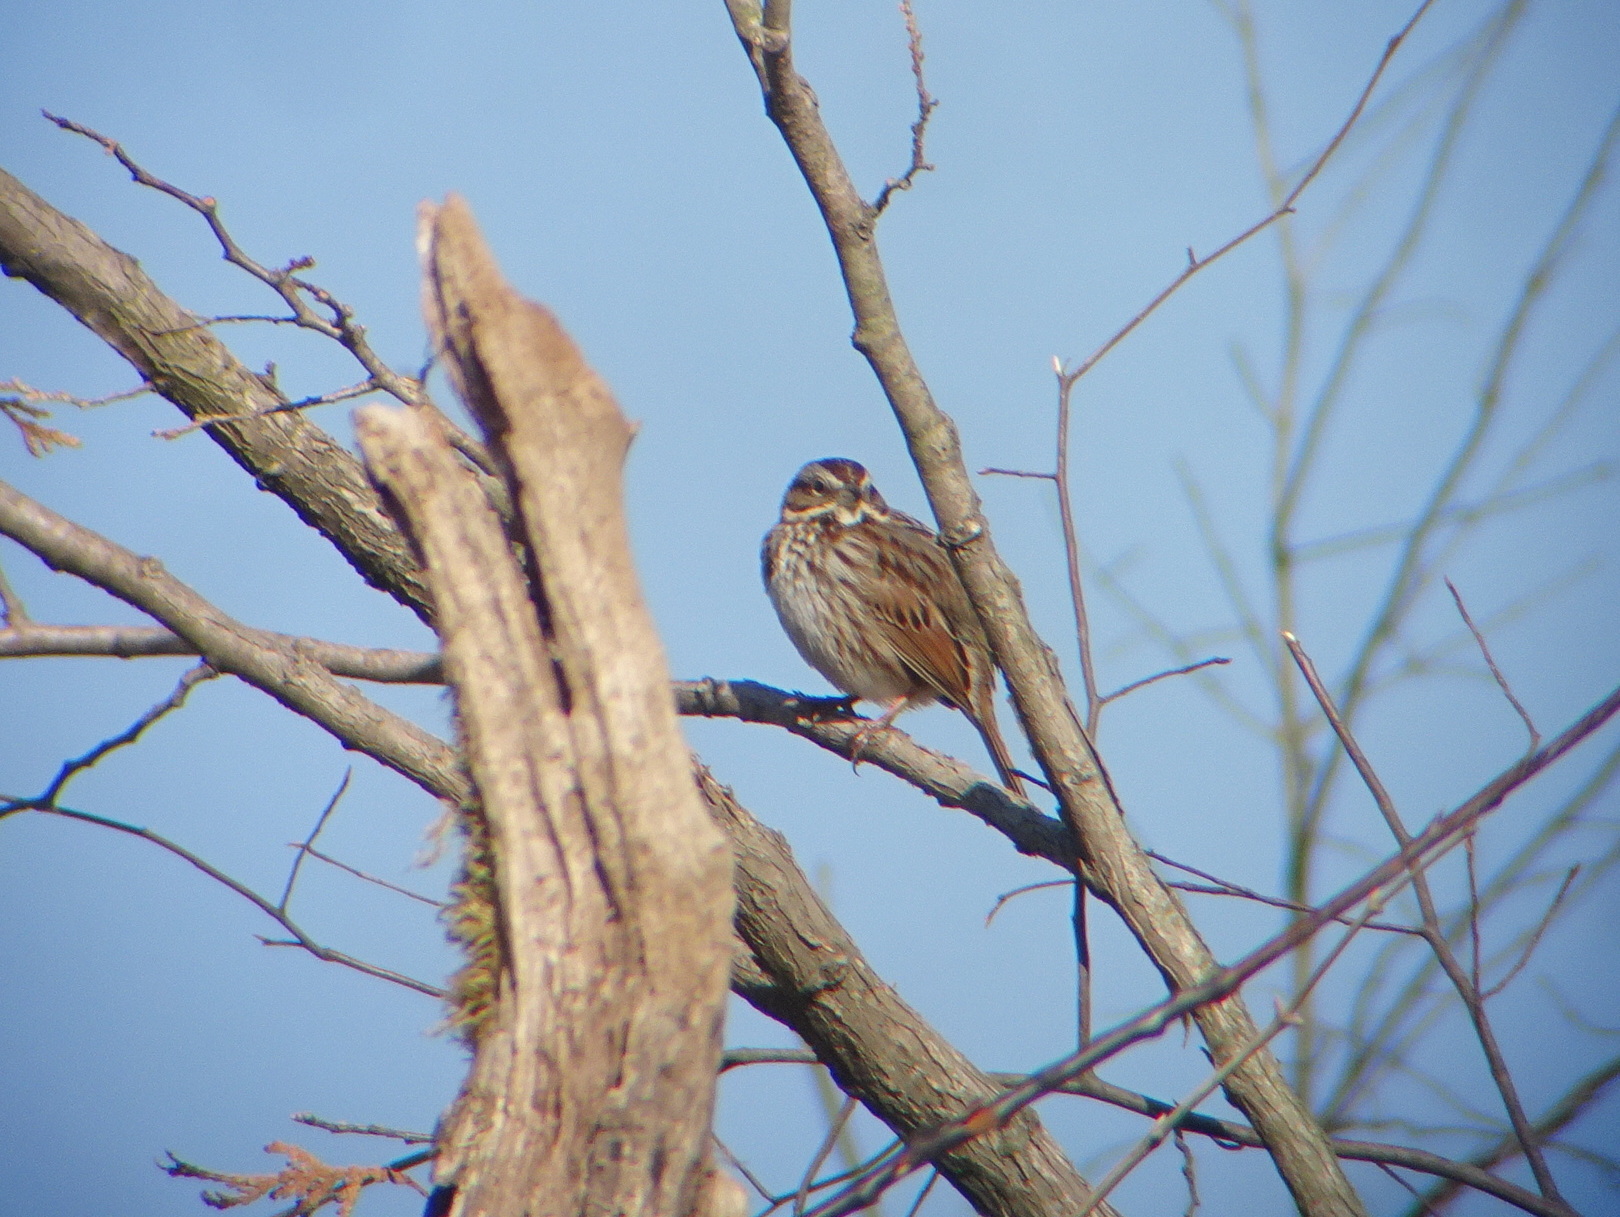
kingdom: Animalia
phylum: Chordata
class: Aves
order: Passeriformes
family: Passerellidae
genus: Melospiza
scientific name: Melospiza melodia
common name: Song sparrow
